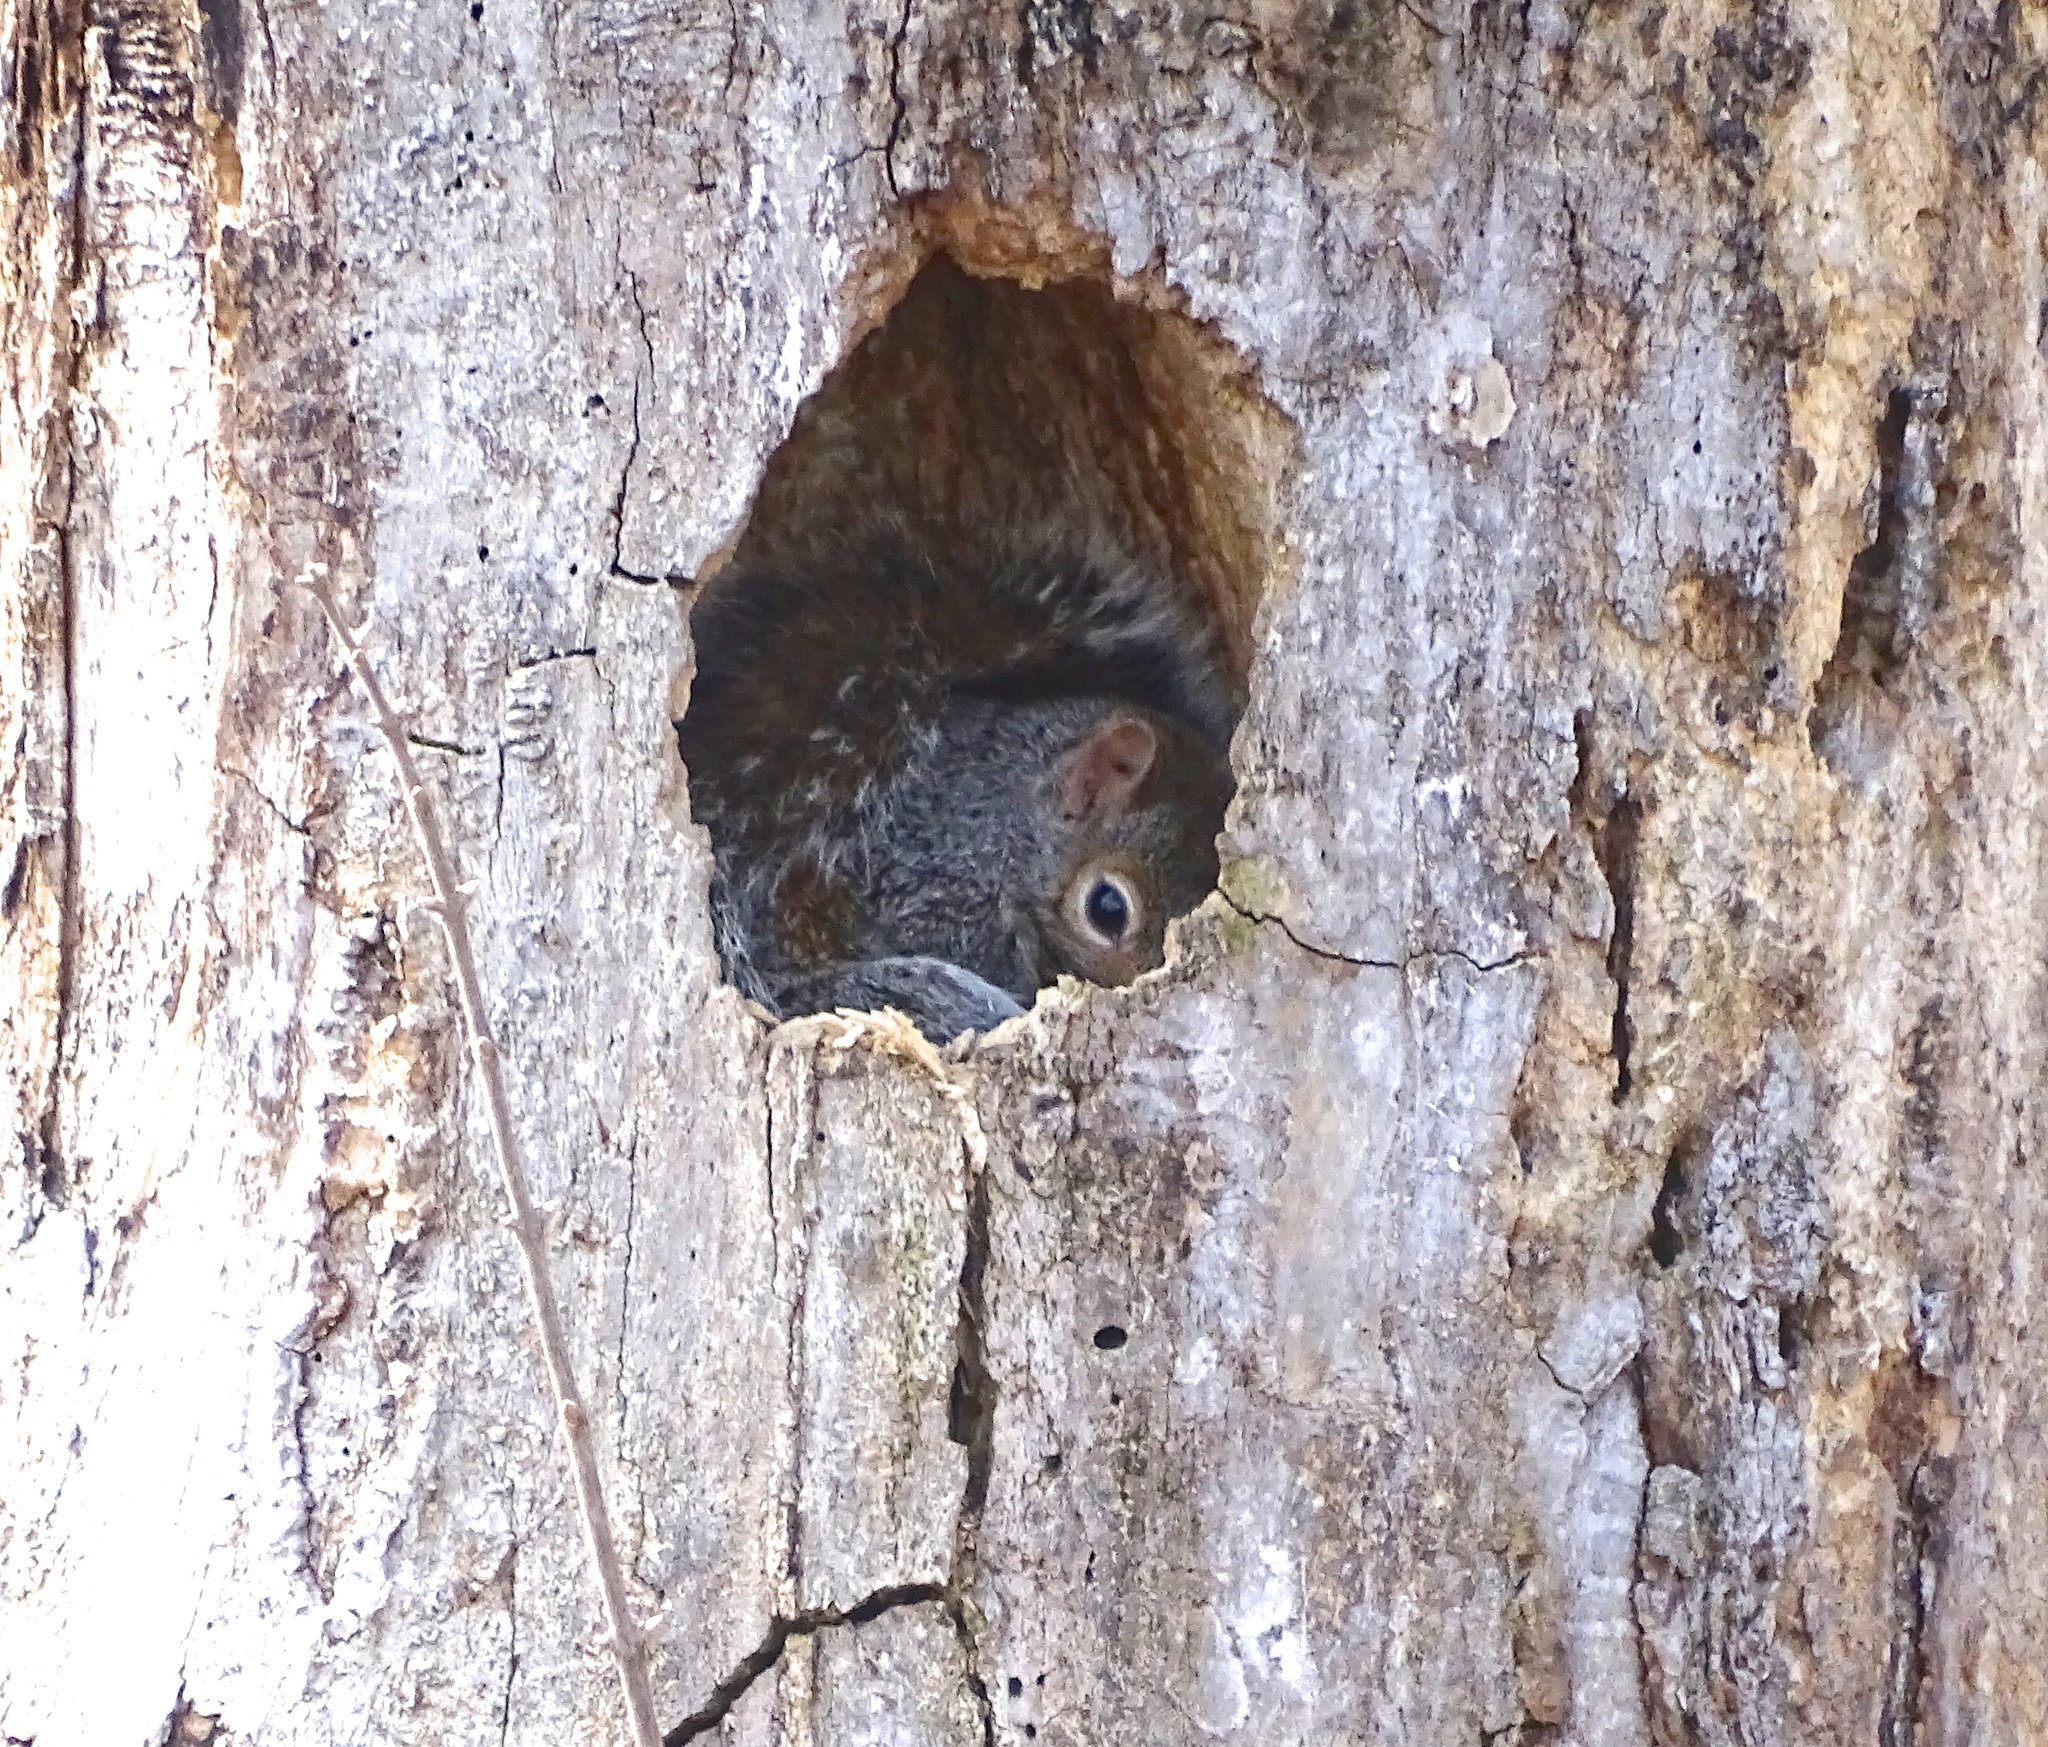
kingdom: Animalia
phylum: Chordata
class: Mammalia
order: Rodentia
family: Sciuridae
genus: Sciurus
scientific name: Sciurus carolinensis
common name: Eastern gray squirrel
